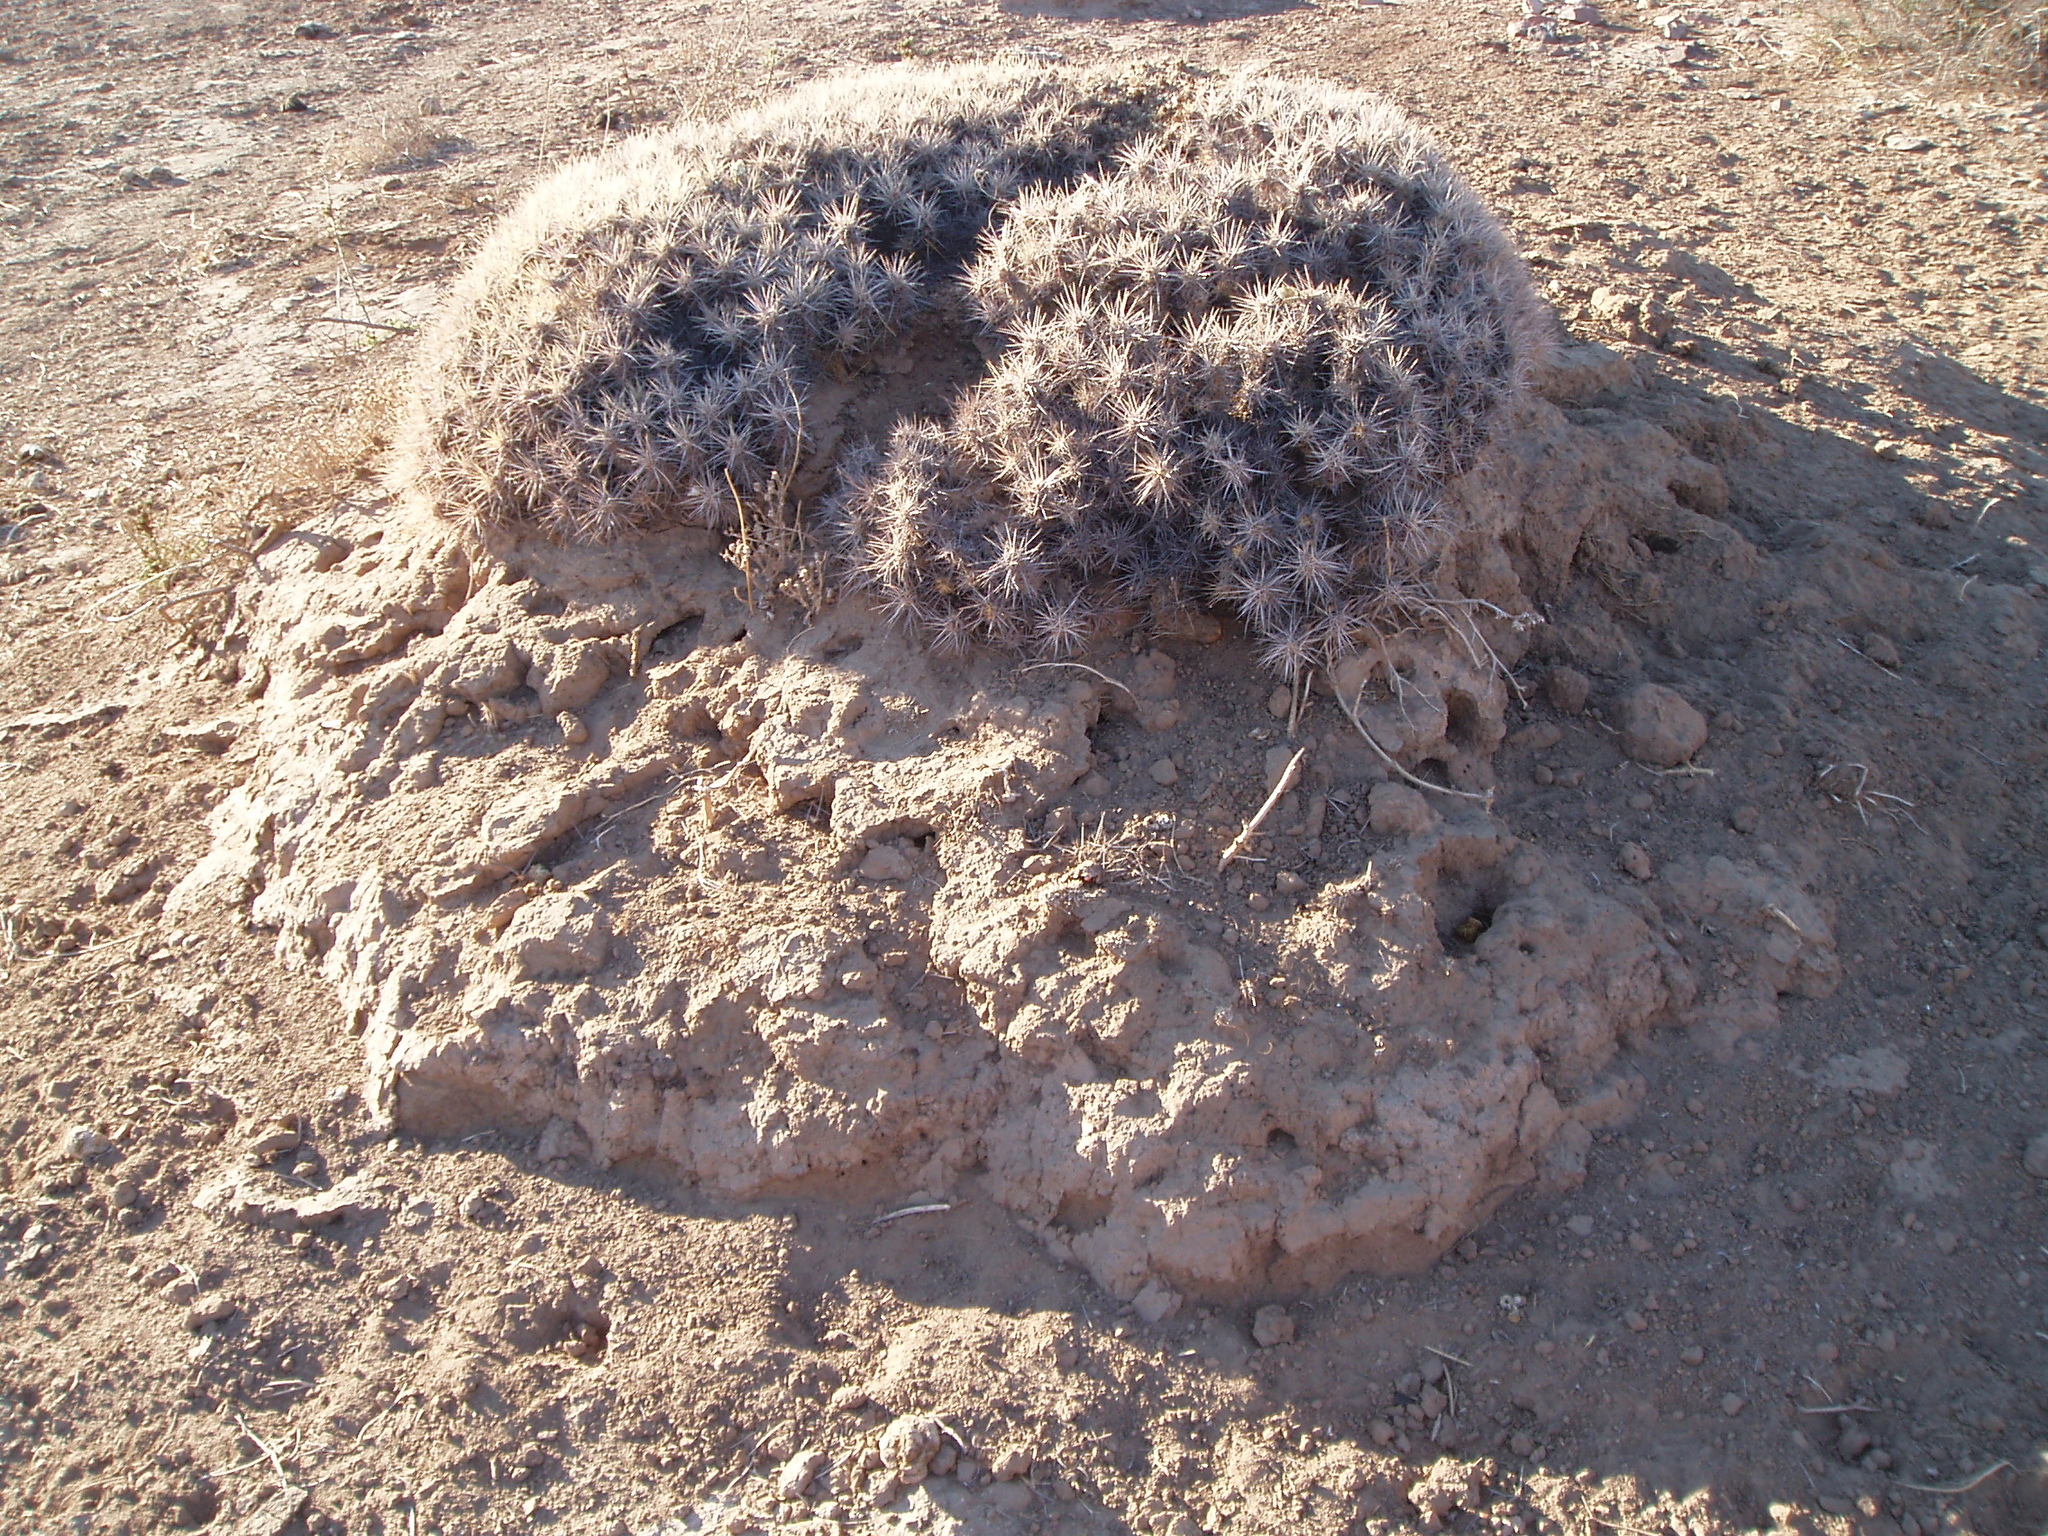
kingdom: Plantae
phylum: Tracheophyta
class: Magnoliopsida
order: Caryophyllales
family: Cactaceae
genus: Echinocereus
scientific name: Echinocereus maritimus
